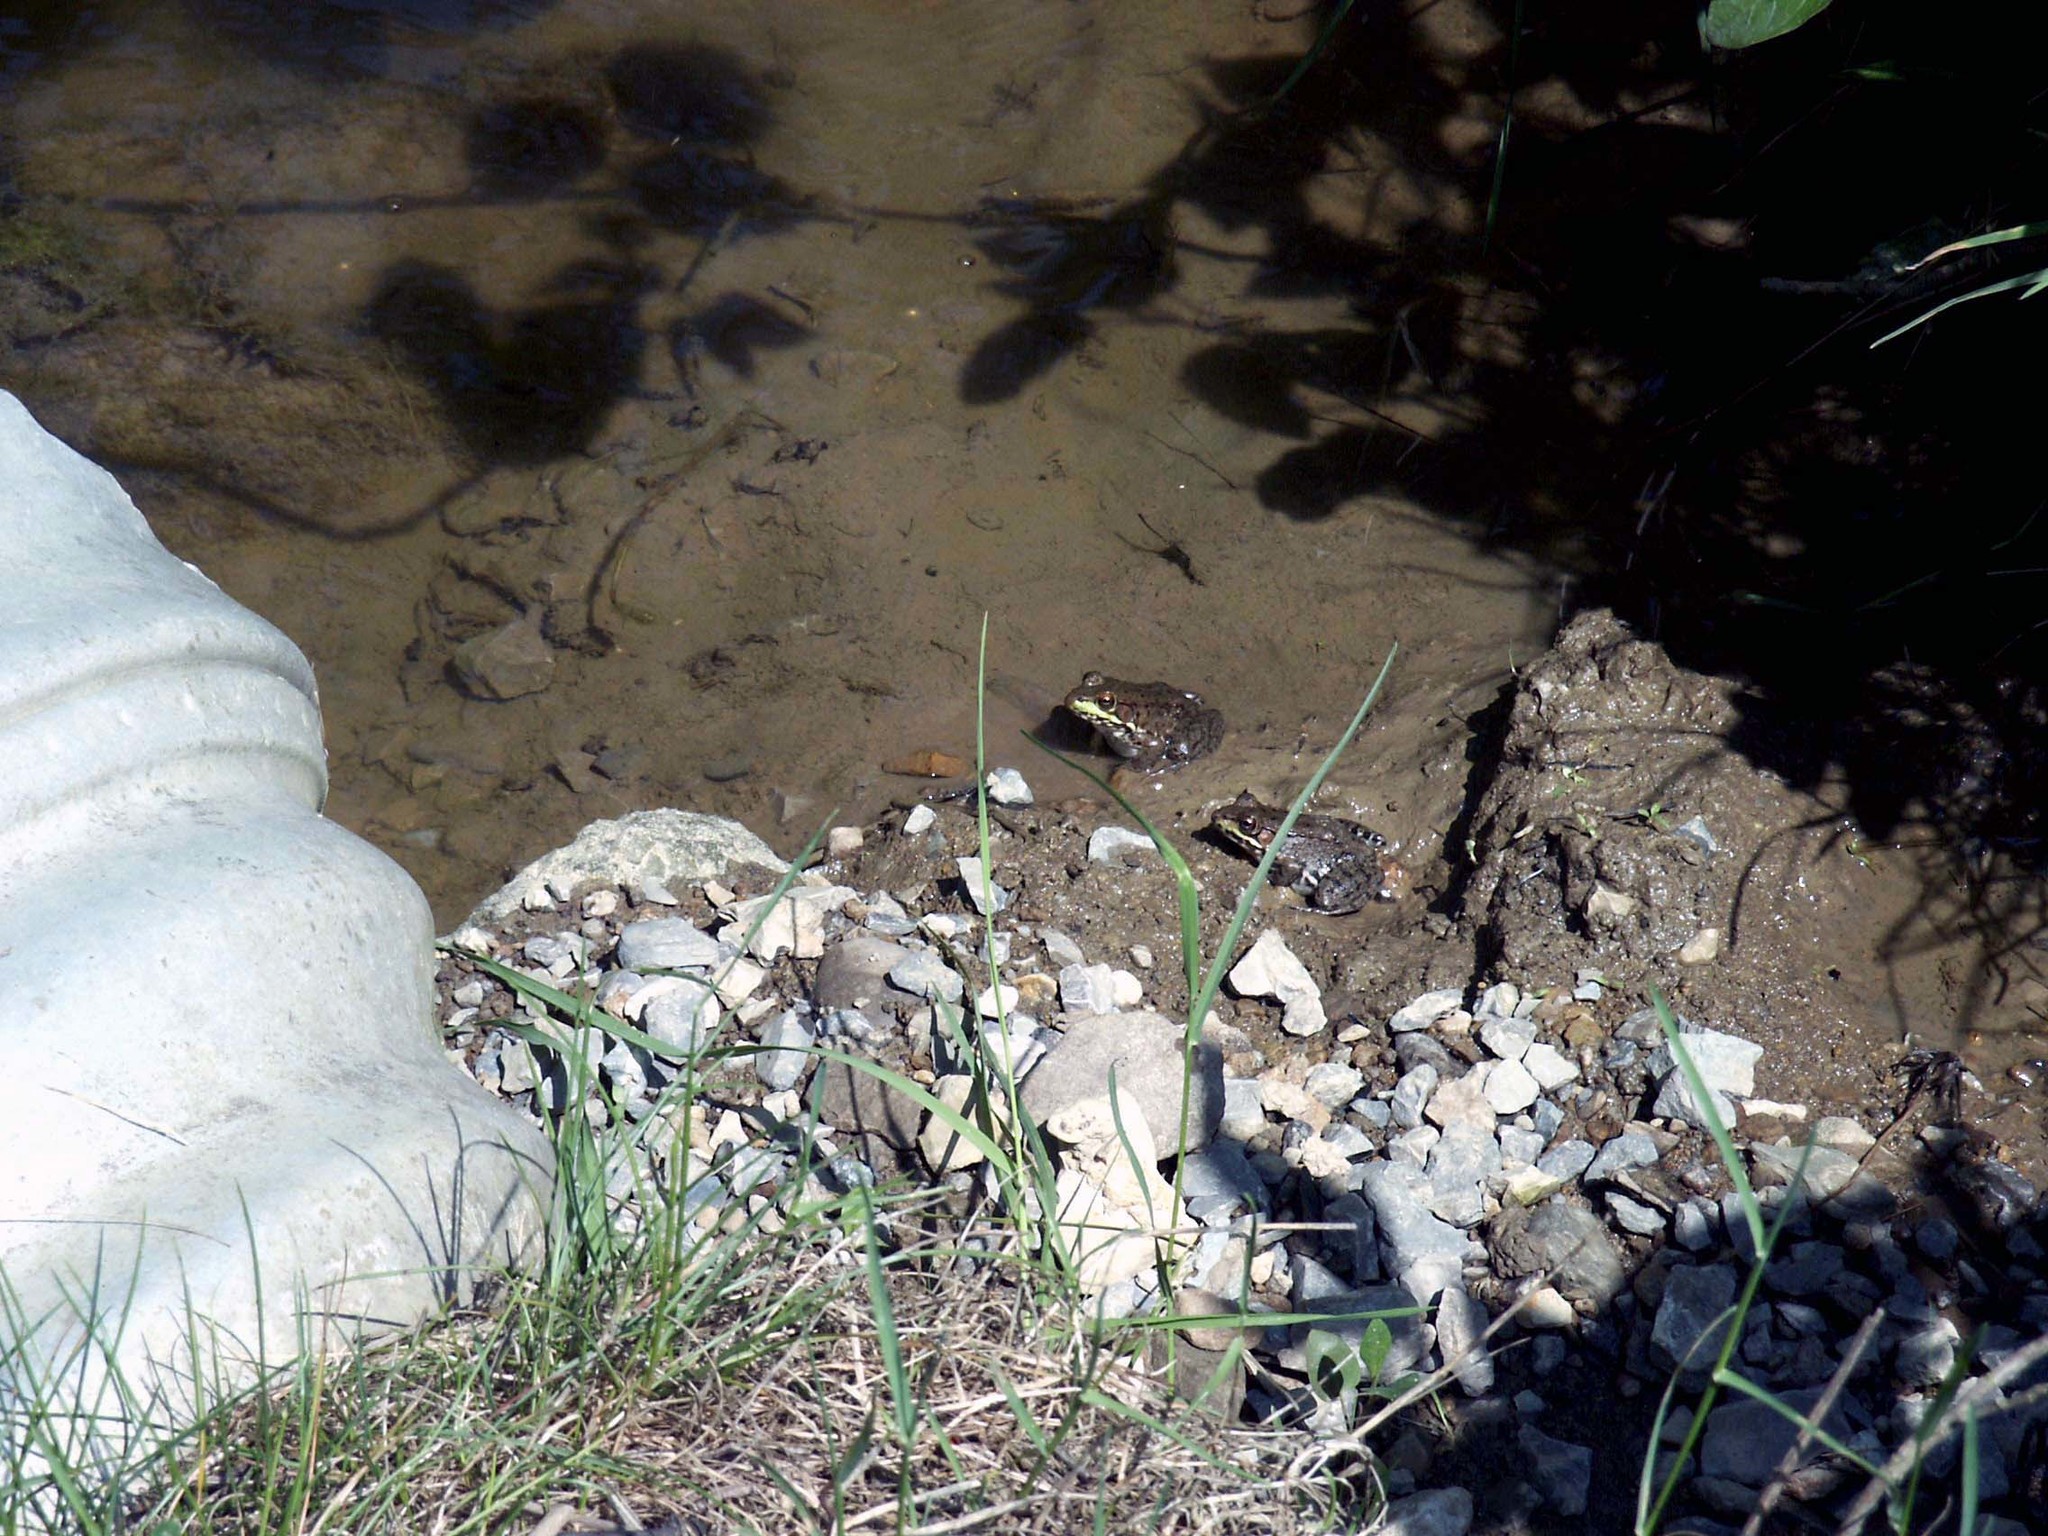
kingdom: Animalia
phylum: Chordata
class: Amphibia
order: Anura
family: Ranidae
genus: Lithobates
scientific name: Lithobates clamitans
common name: Green frog
